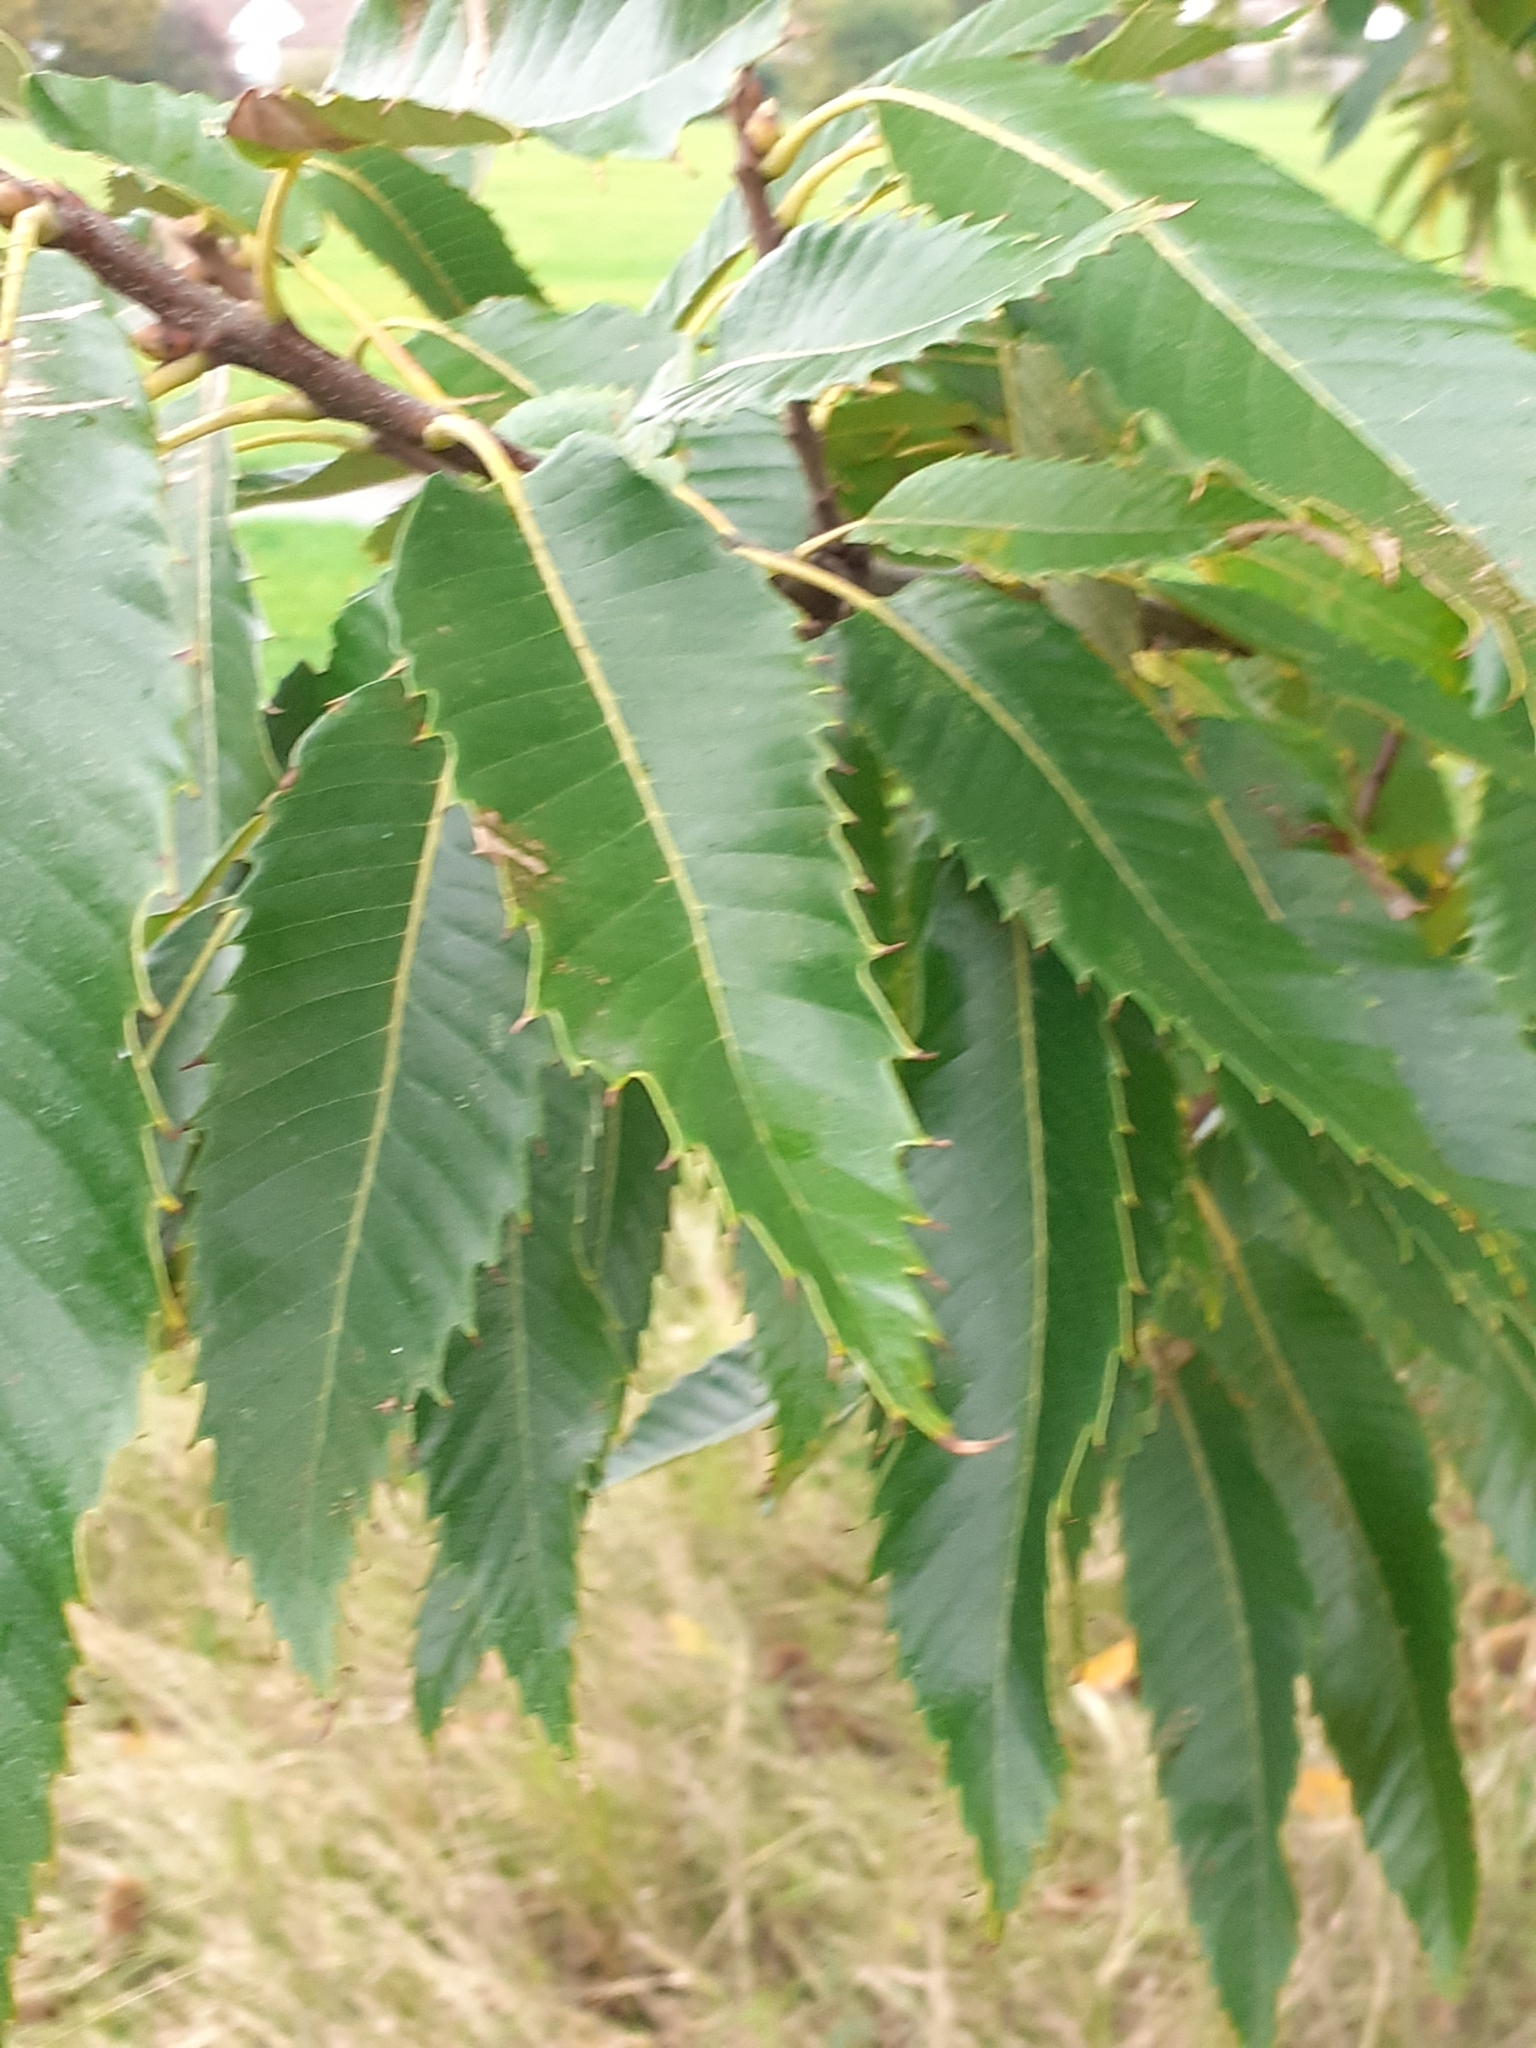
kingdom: Plantae
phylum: Tracheophyta
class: Magnoliopsida
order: Fagales
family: Fagaceae
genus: Castanea
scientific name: Castanea sativa
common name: Sweet chestnut
